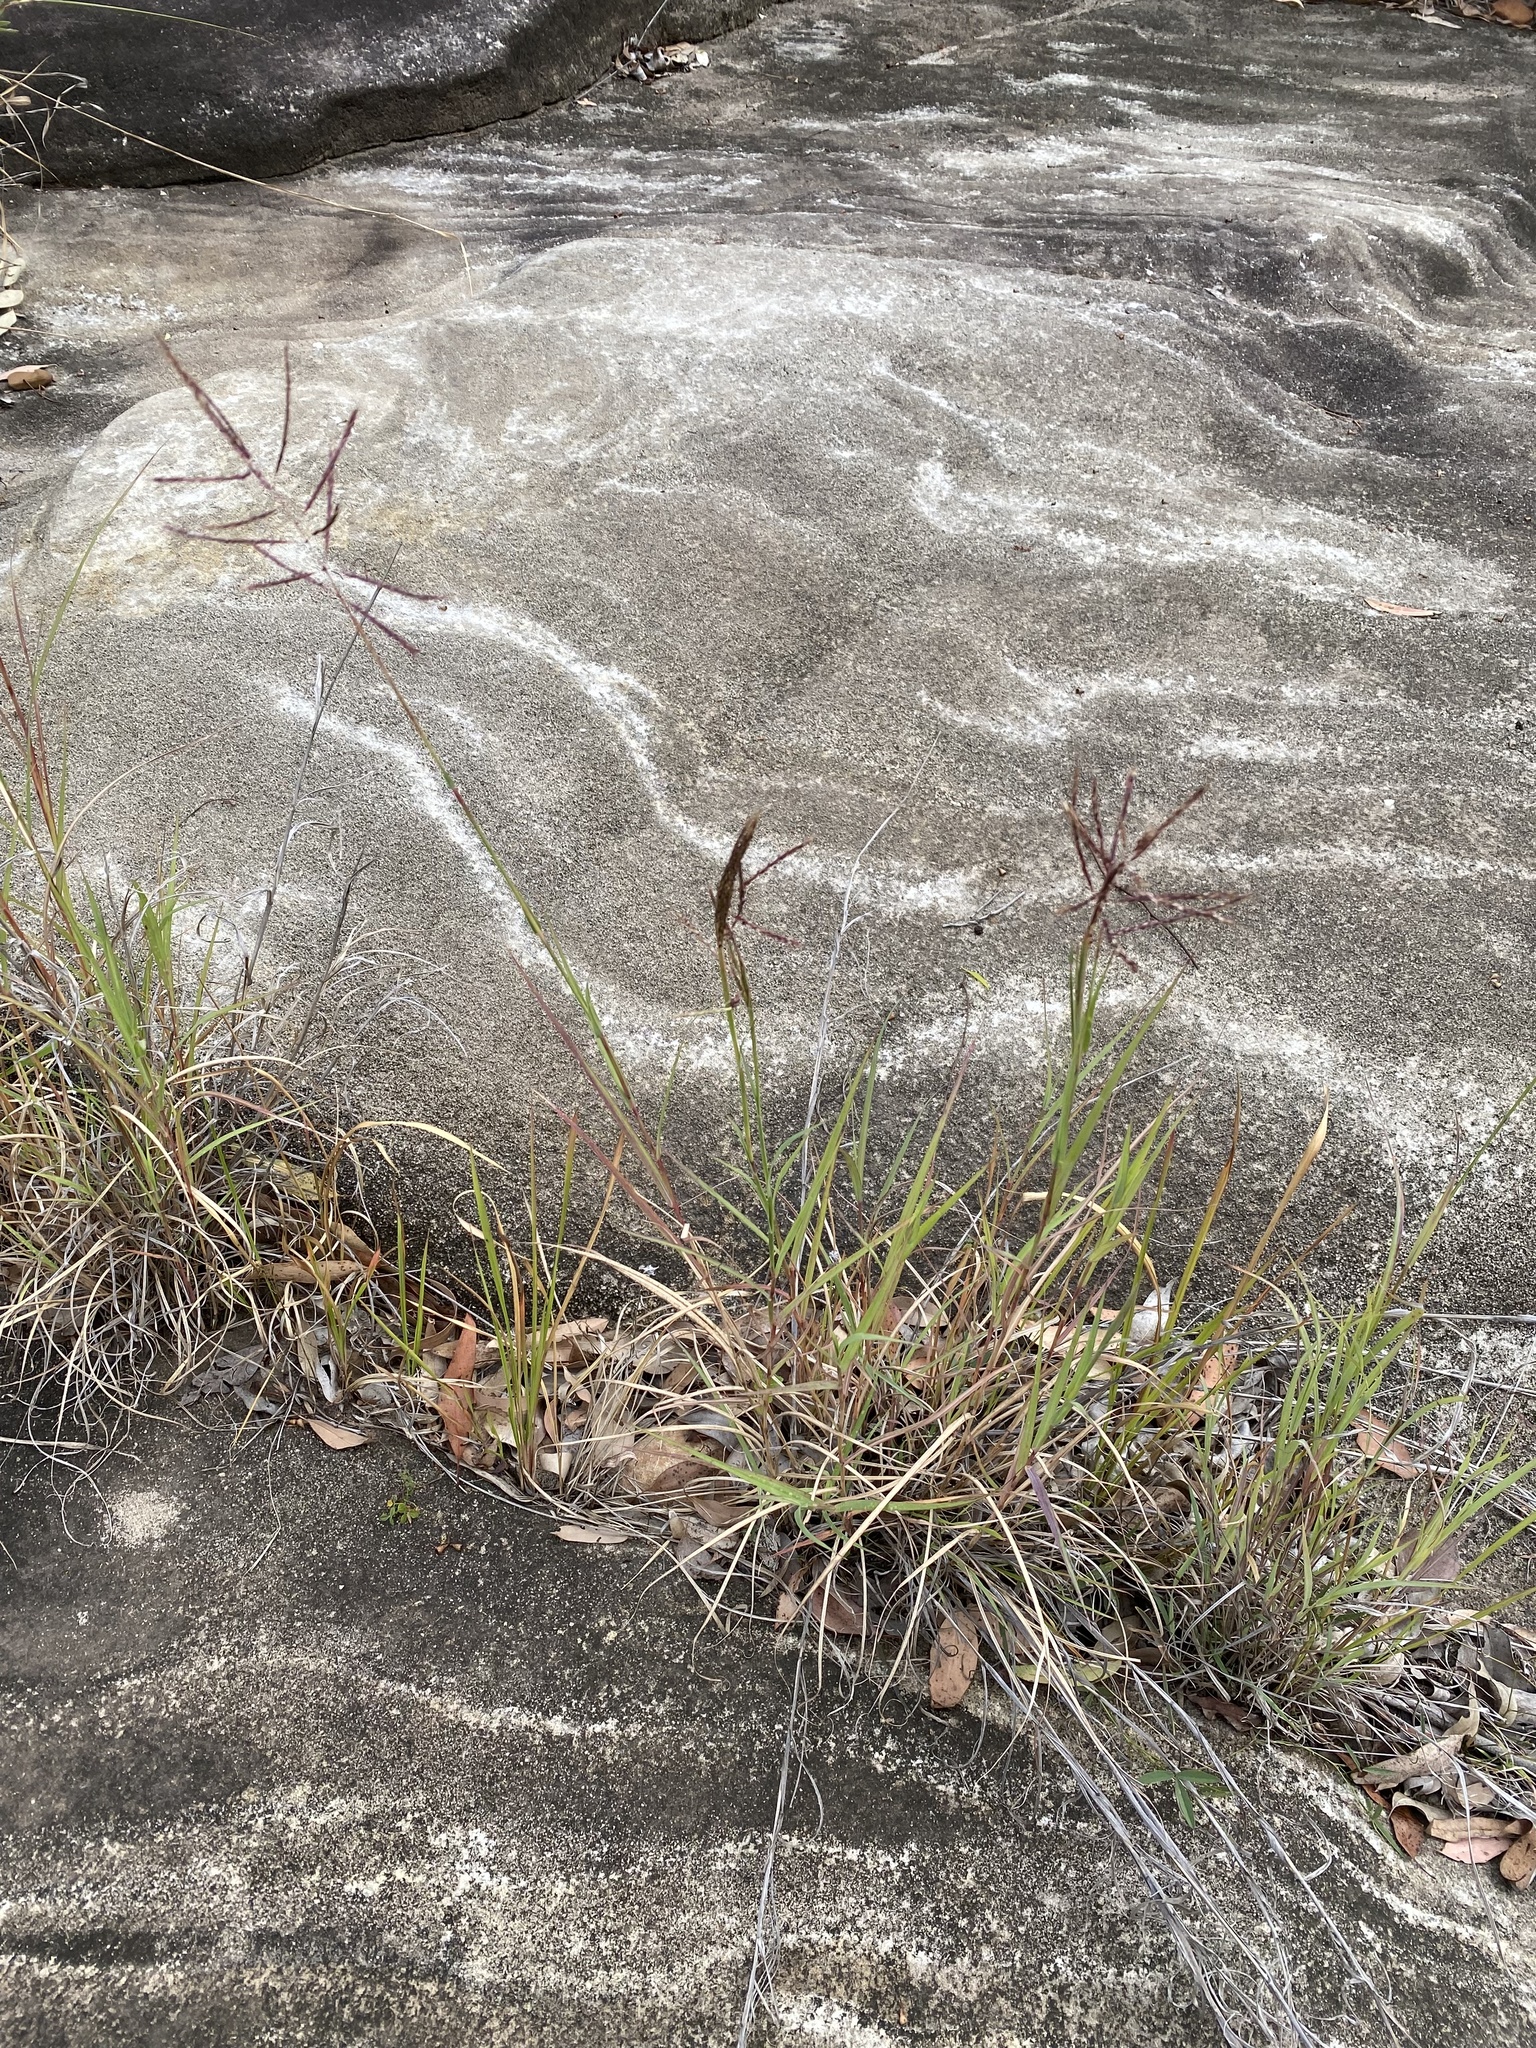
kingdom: Plantae
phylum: Tracheophyta
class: Liliopsida
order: Poales
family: Poaceae
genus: Bothriochloa
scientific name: Bothriochloa bladhii
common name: Caucasian bluestem
